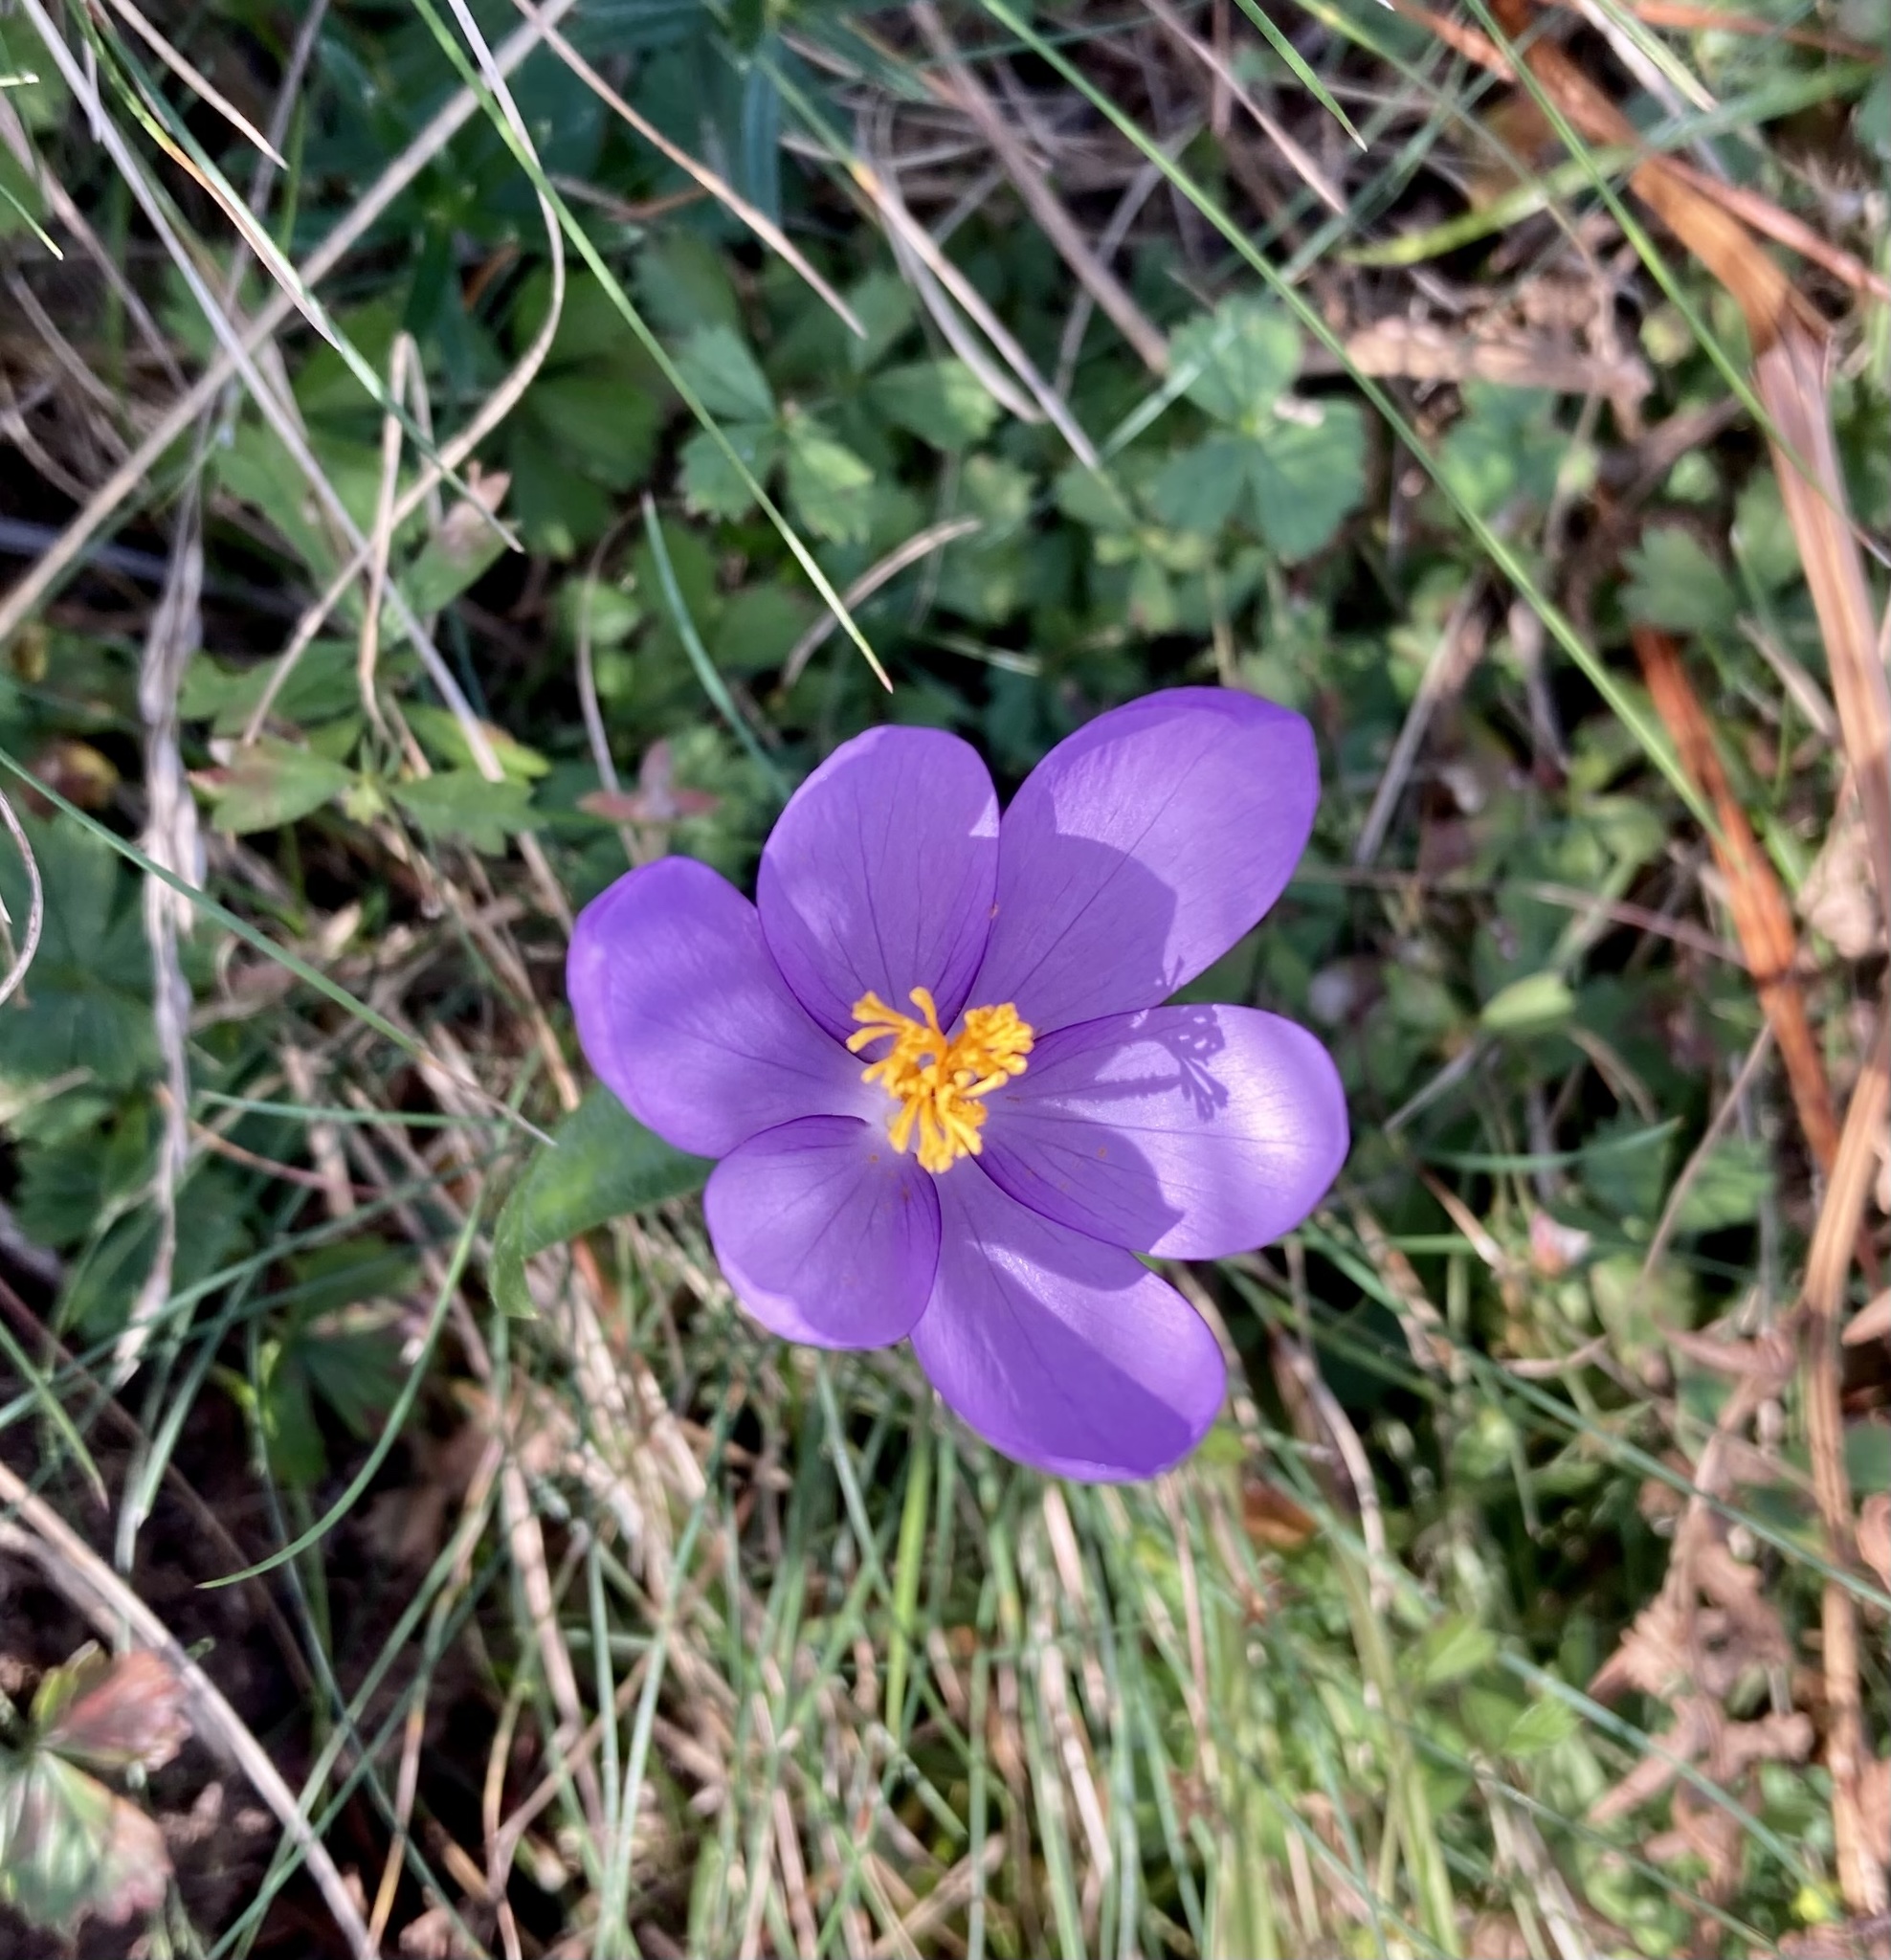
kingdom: Plantae
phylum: Tracheophyta
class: Liliopsida
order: Asparagales
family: Iridaceae
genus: Crocus
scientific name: Crocus nudiflorus
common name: Autumn crocus
